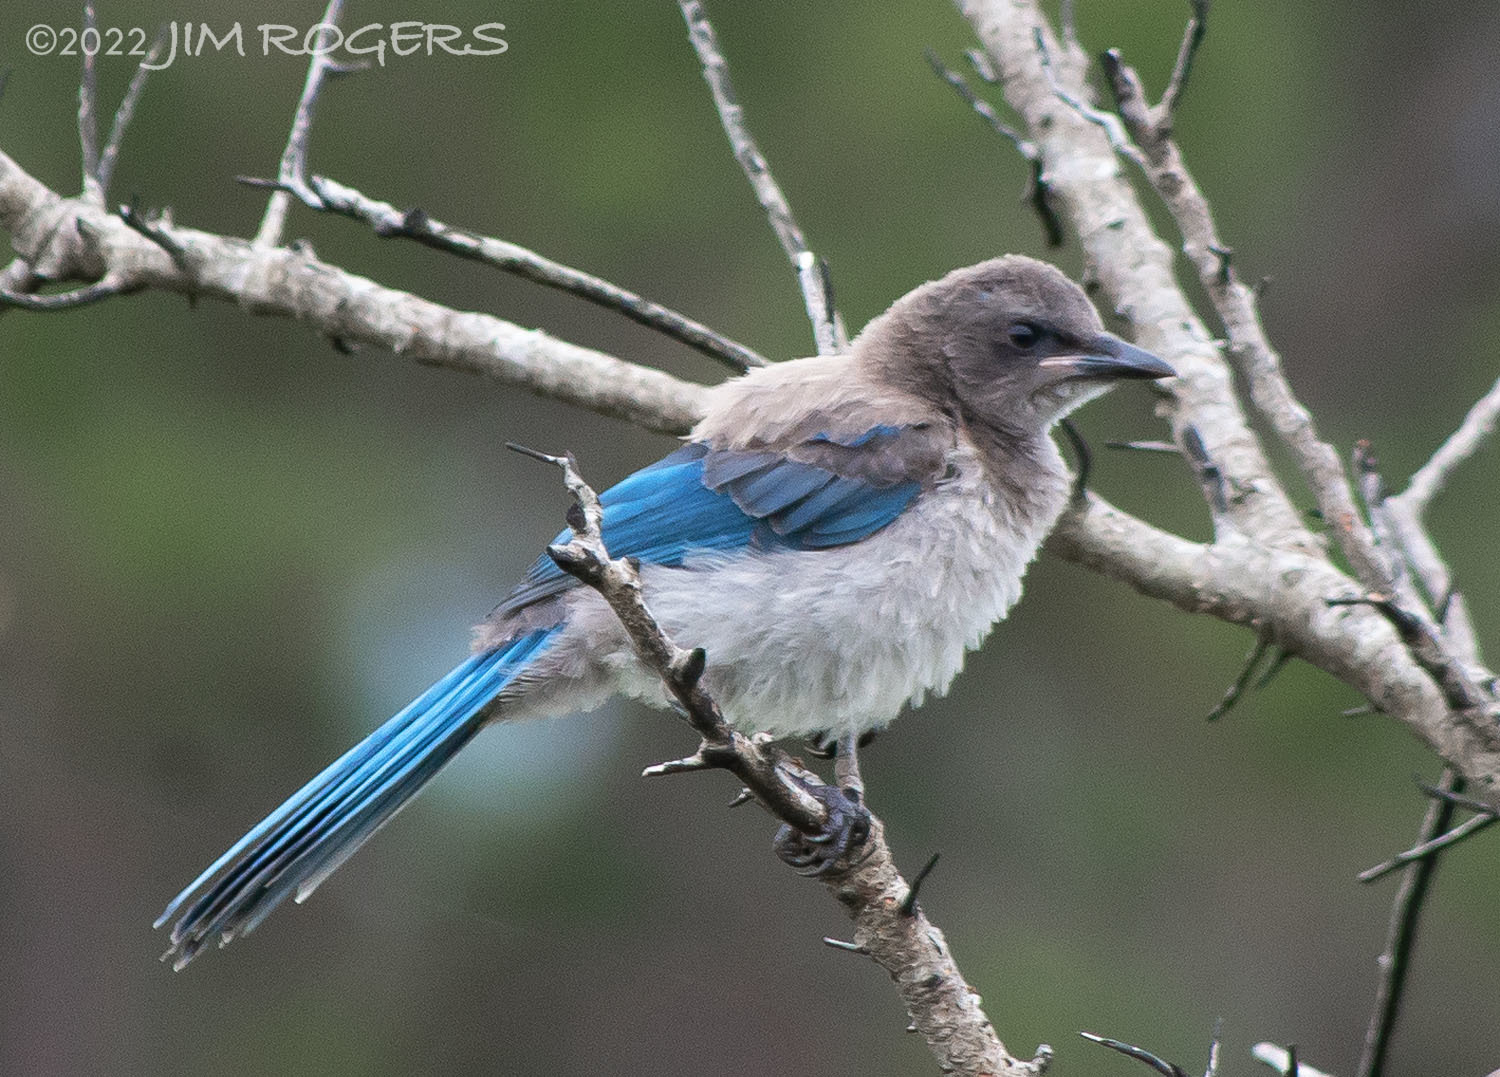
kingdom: Animalia
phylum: Chordata
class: Aves
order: Passeriformes
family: Corvidae
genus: Aphelocoma
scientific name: Aphelocoma coerulescens
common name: Florida scrub jay
